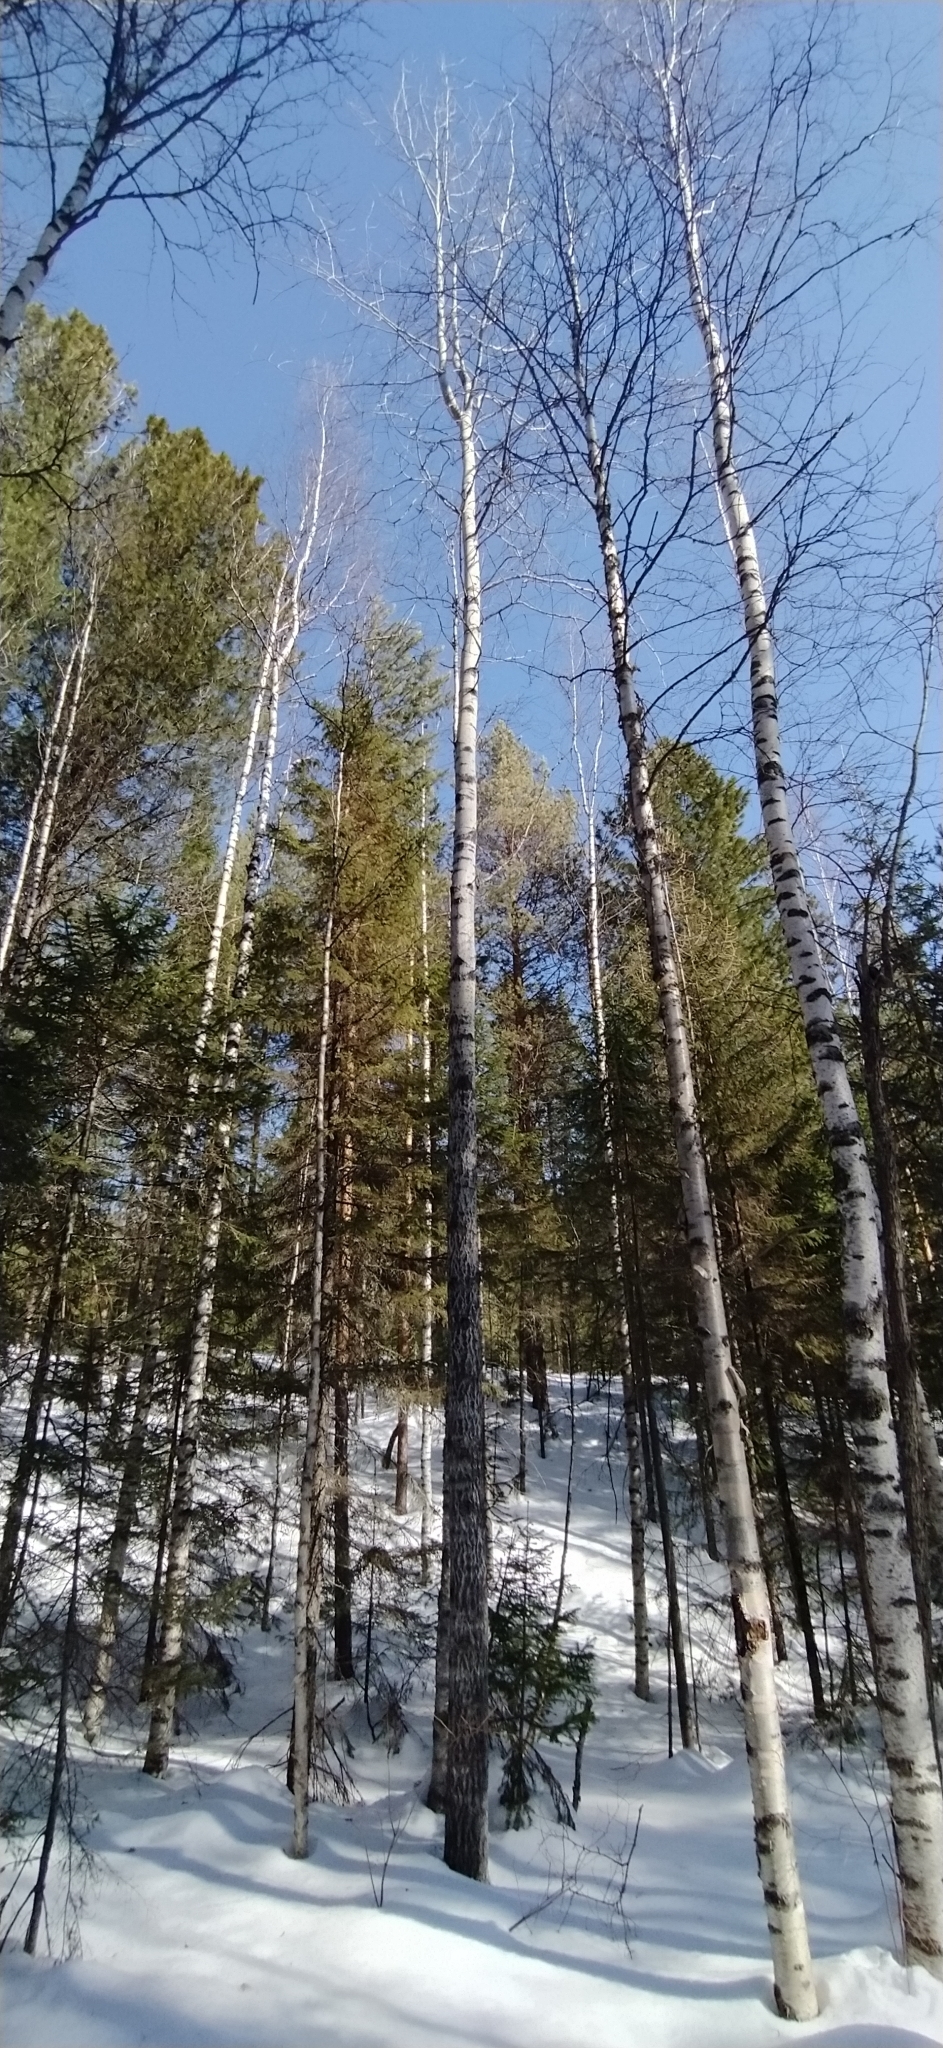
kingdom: Plantae
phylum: Tracheophyta
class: Magnoliopsida
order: Malpighiales
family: Salicaceae
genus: Populus
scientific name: Populus tremula
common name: European aspen
